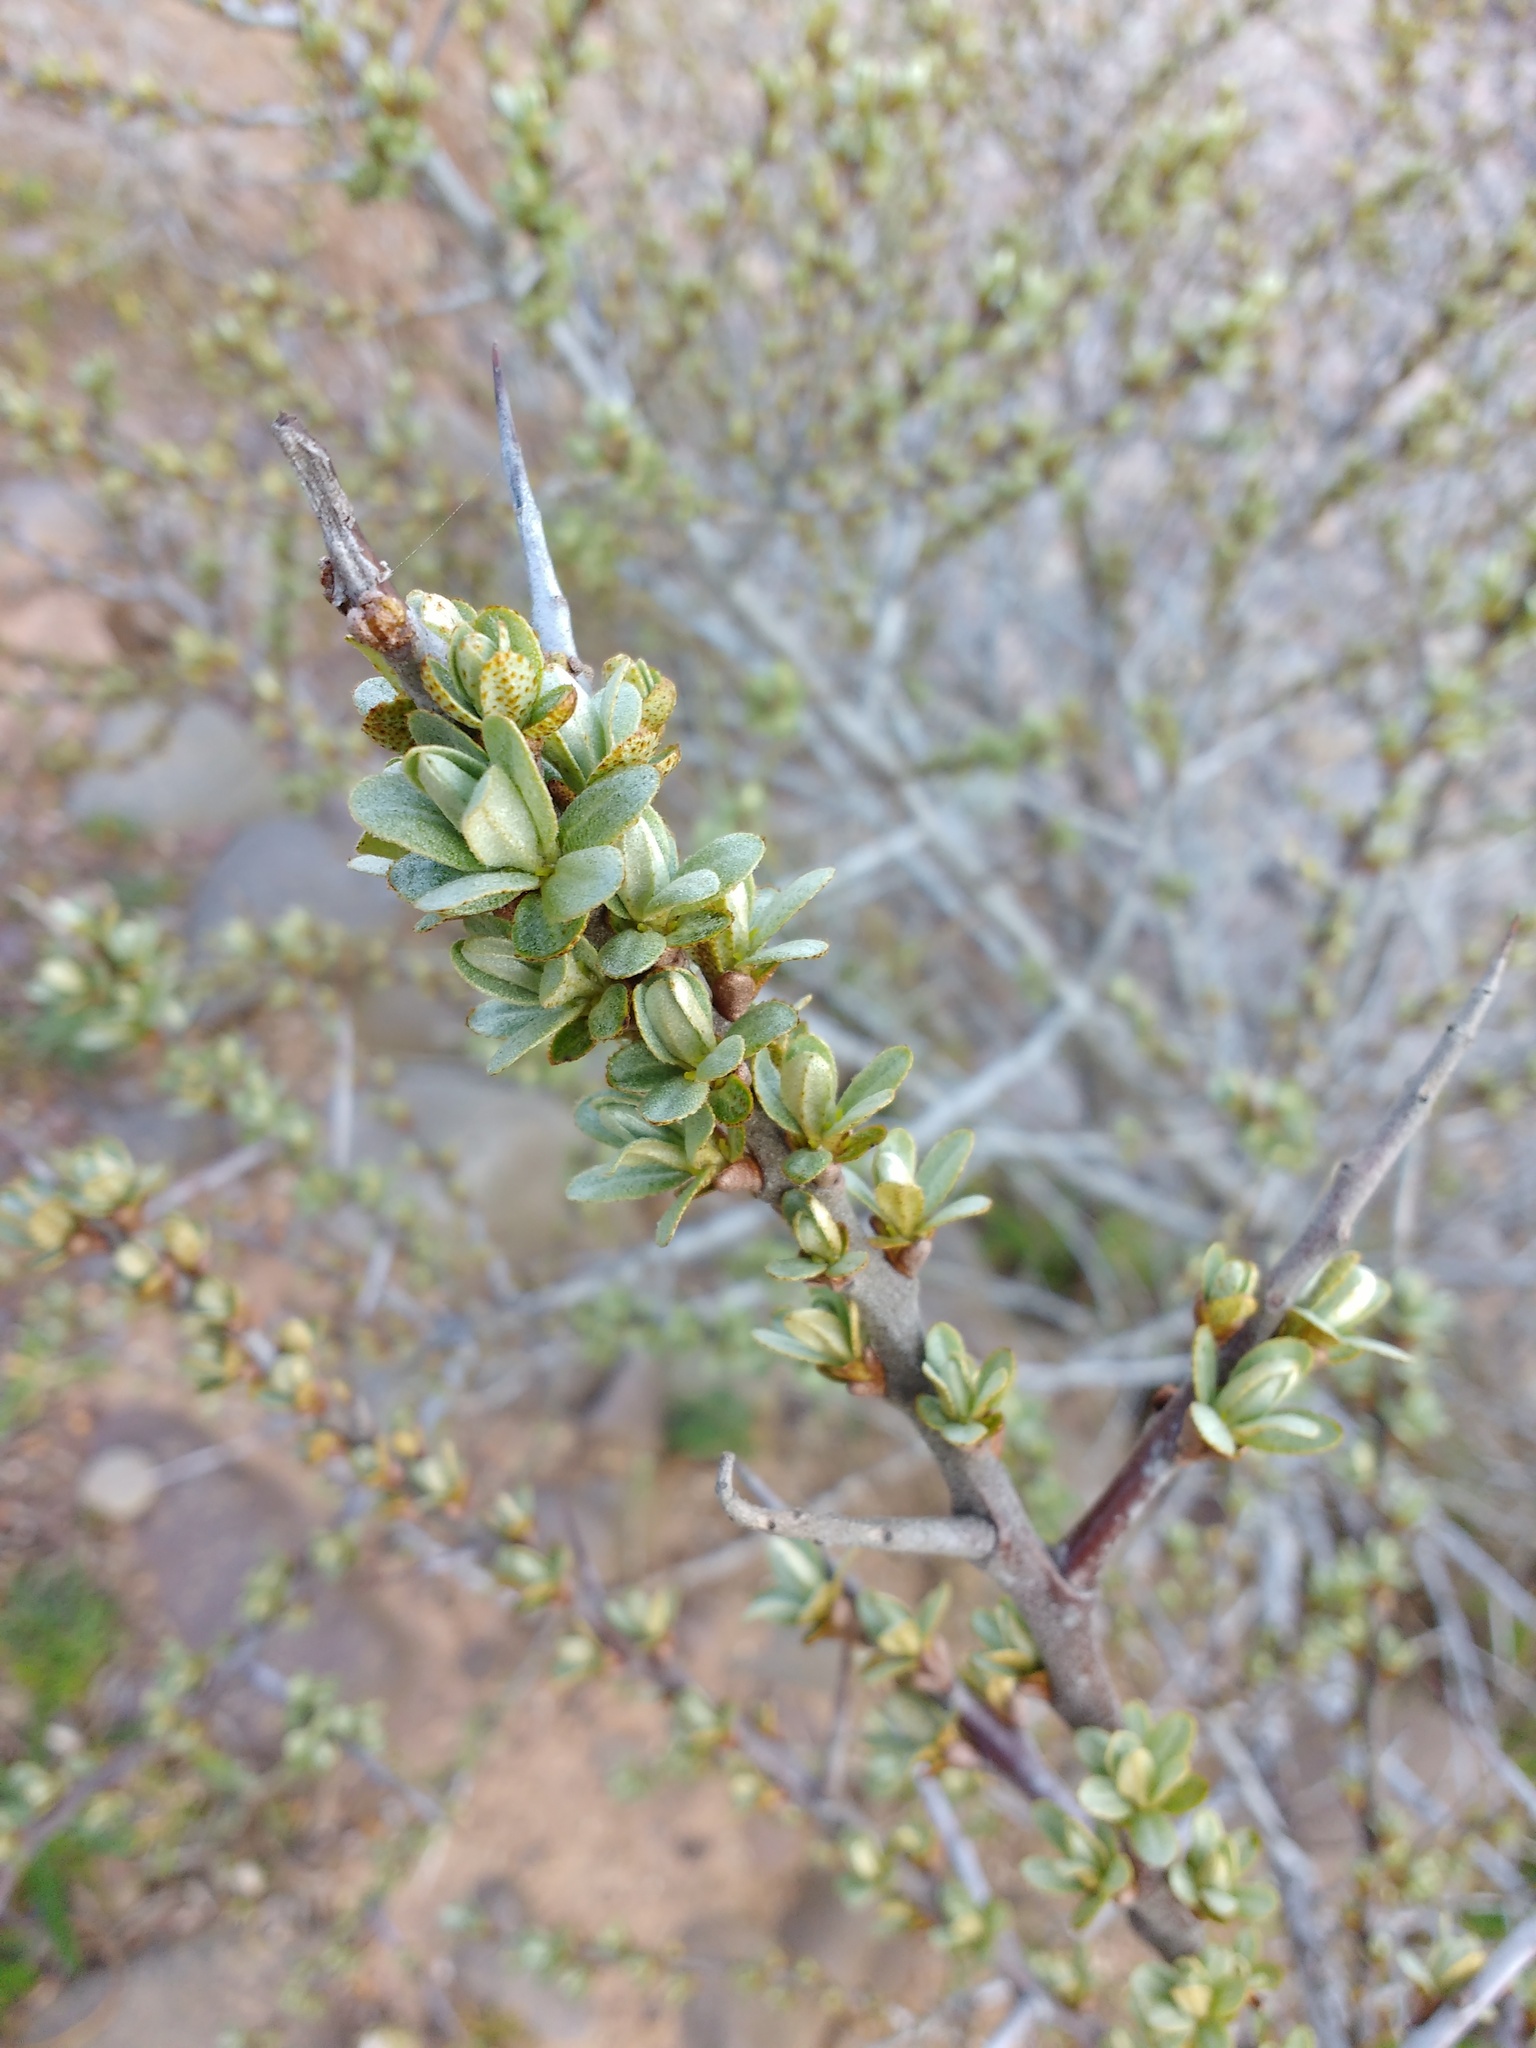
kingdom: Plantae
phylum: Tracheophyta
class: Magnoliopsida
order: Rosales
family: Elaeagnaceae
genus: Hippophae
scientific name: Hippophae rhamnoides
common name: Sea-buckthorn
